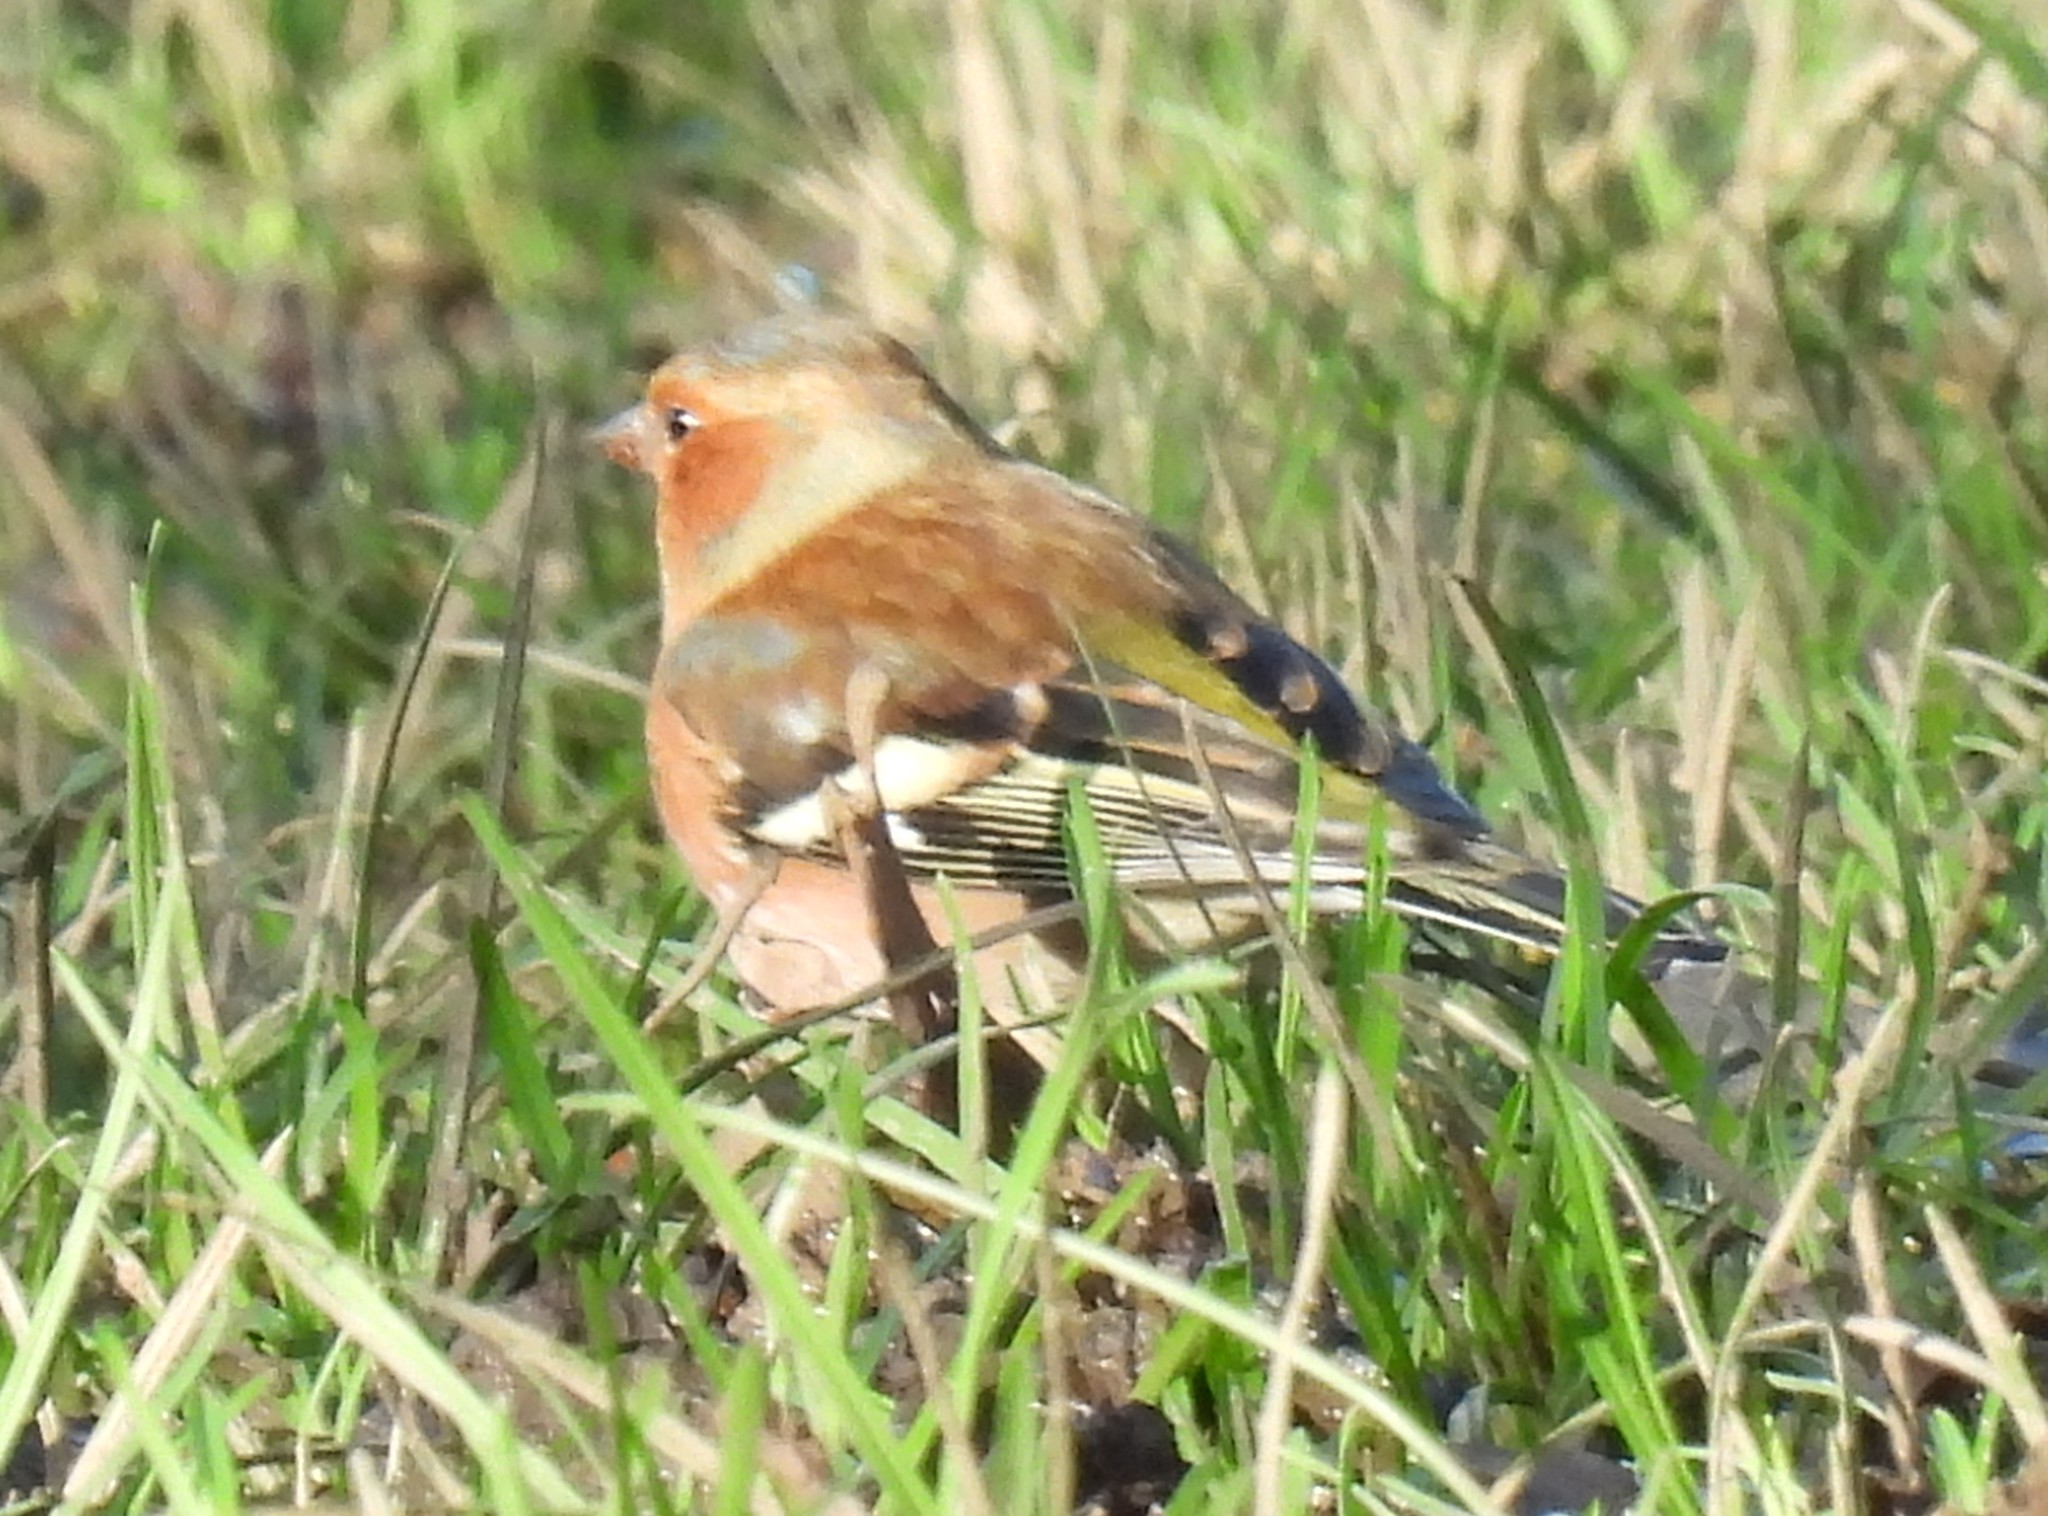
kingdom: Animalia
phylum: Chordata
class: Aves
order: Passeriformes
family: Fringillidae
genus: Fringilla
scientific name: Fringilla coelebs
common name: Common chaffinch
